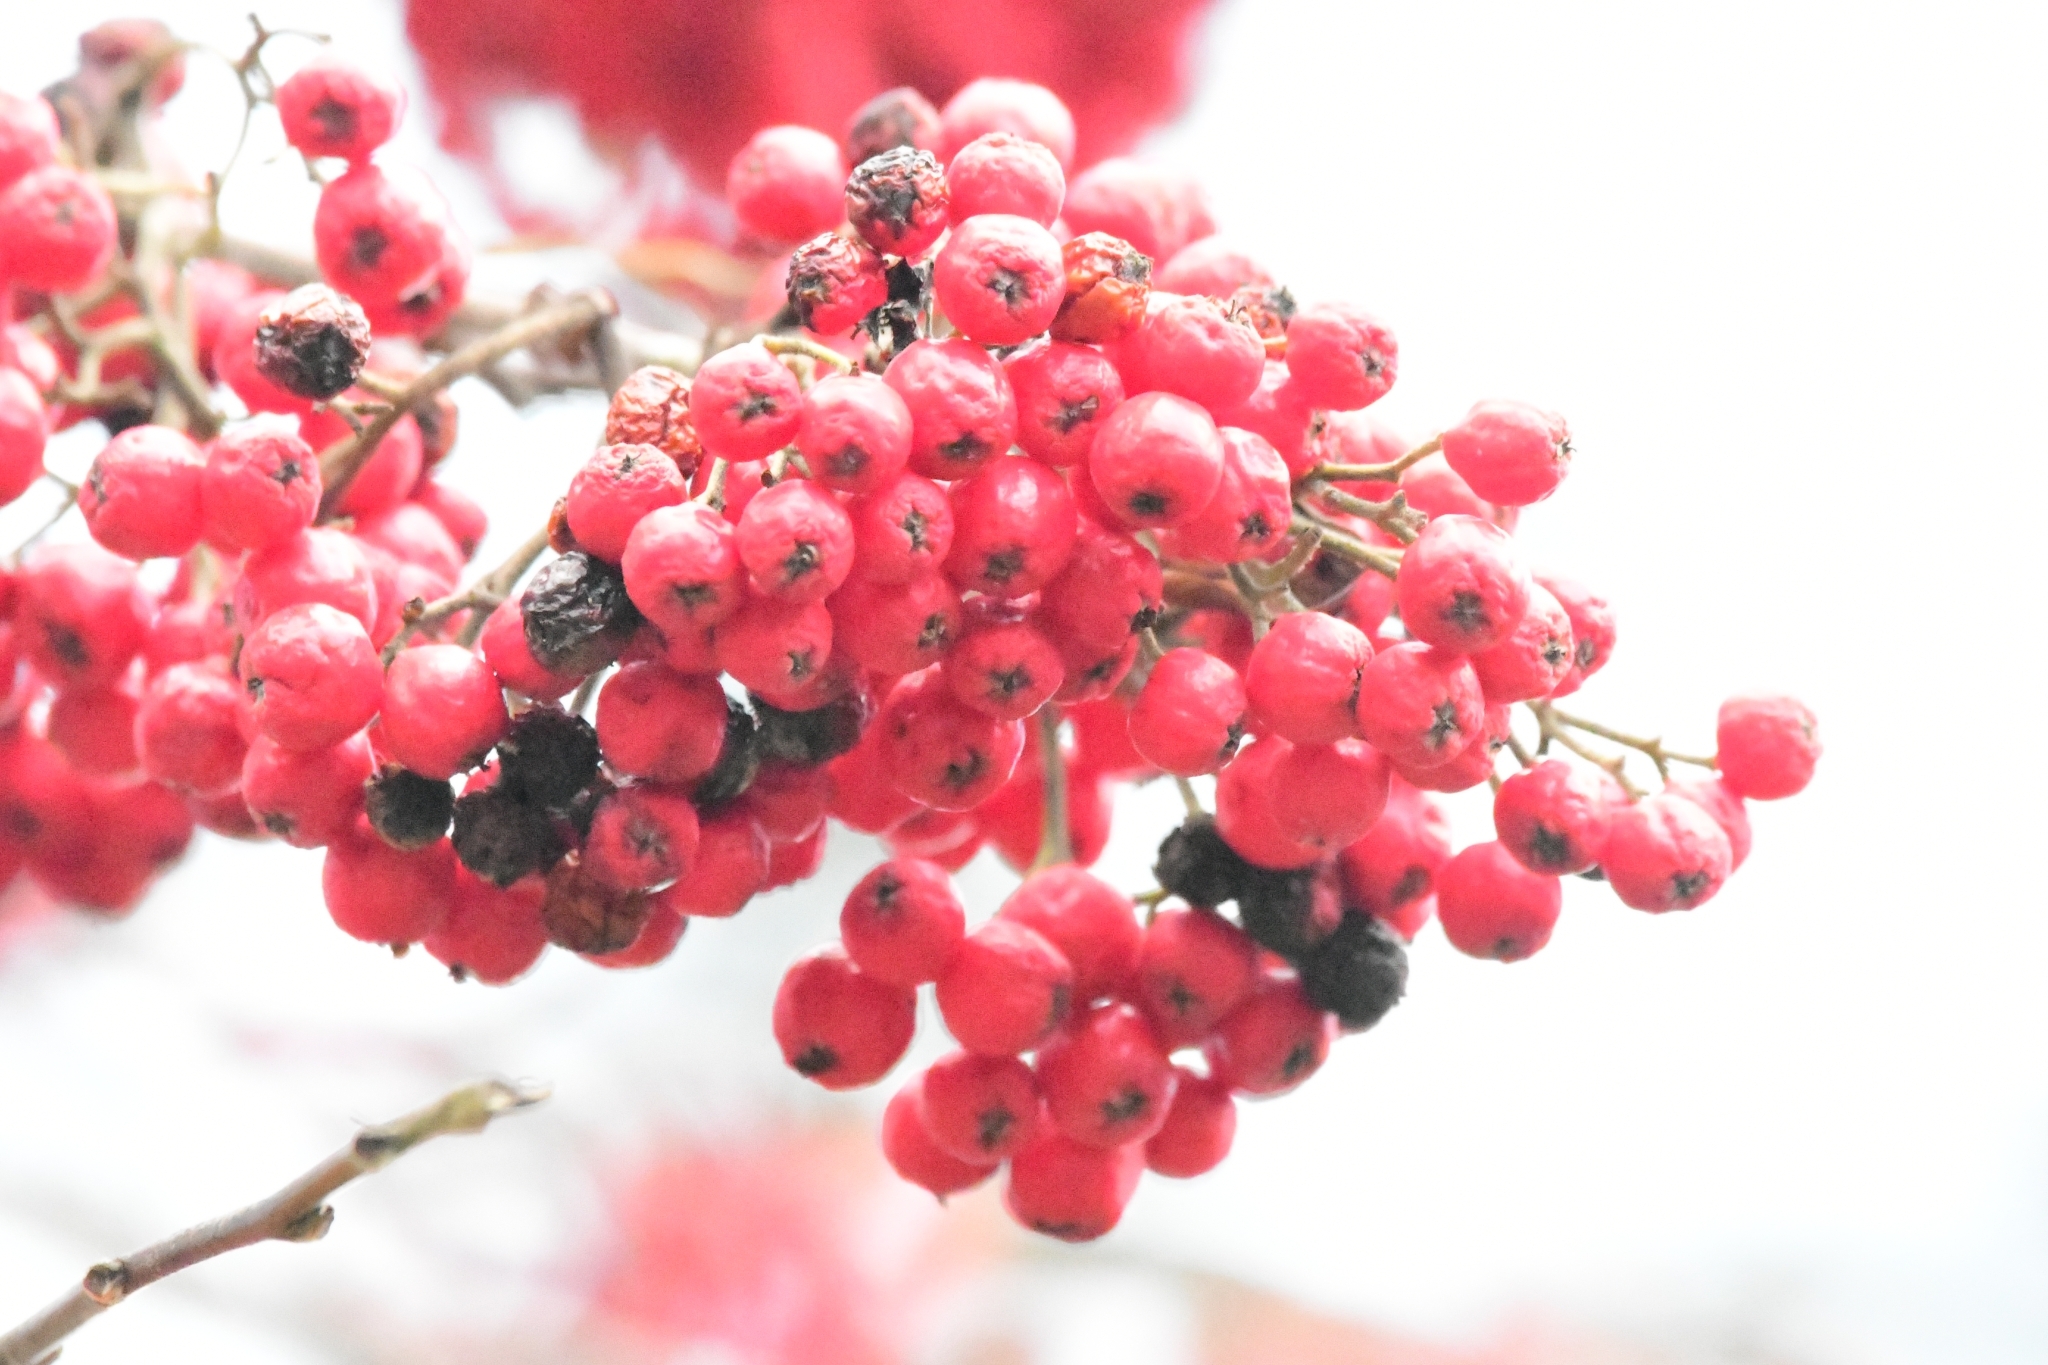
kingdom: Plantae
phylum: Tracheophyta
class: Magnoliopsida
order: Rosales
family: Rosaceae
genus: Sorbus
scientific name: Sorbus aucuparia
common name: Rowan
